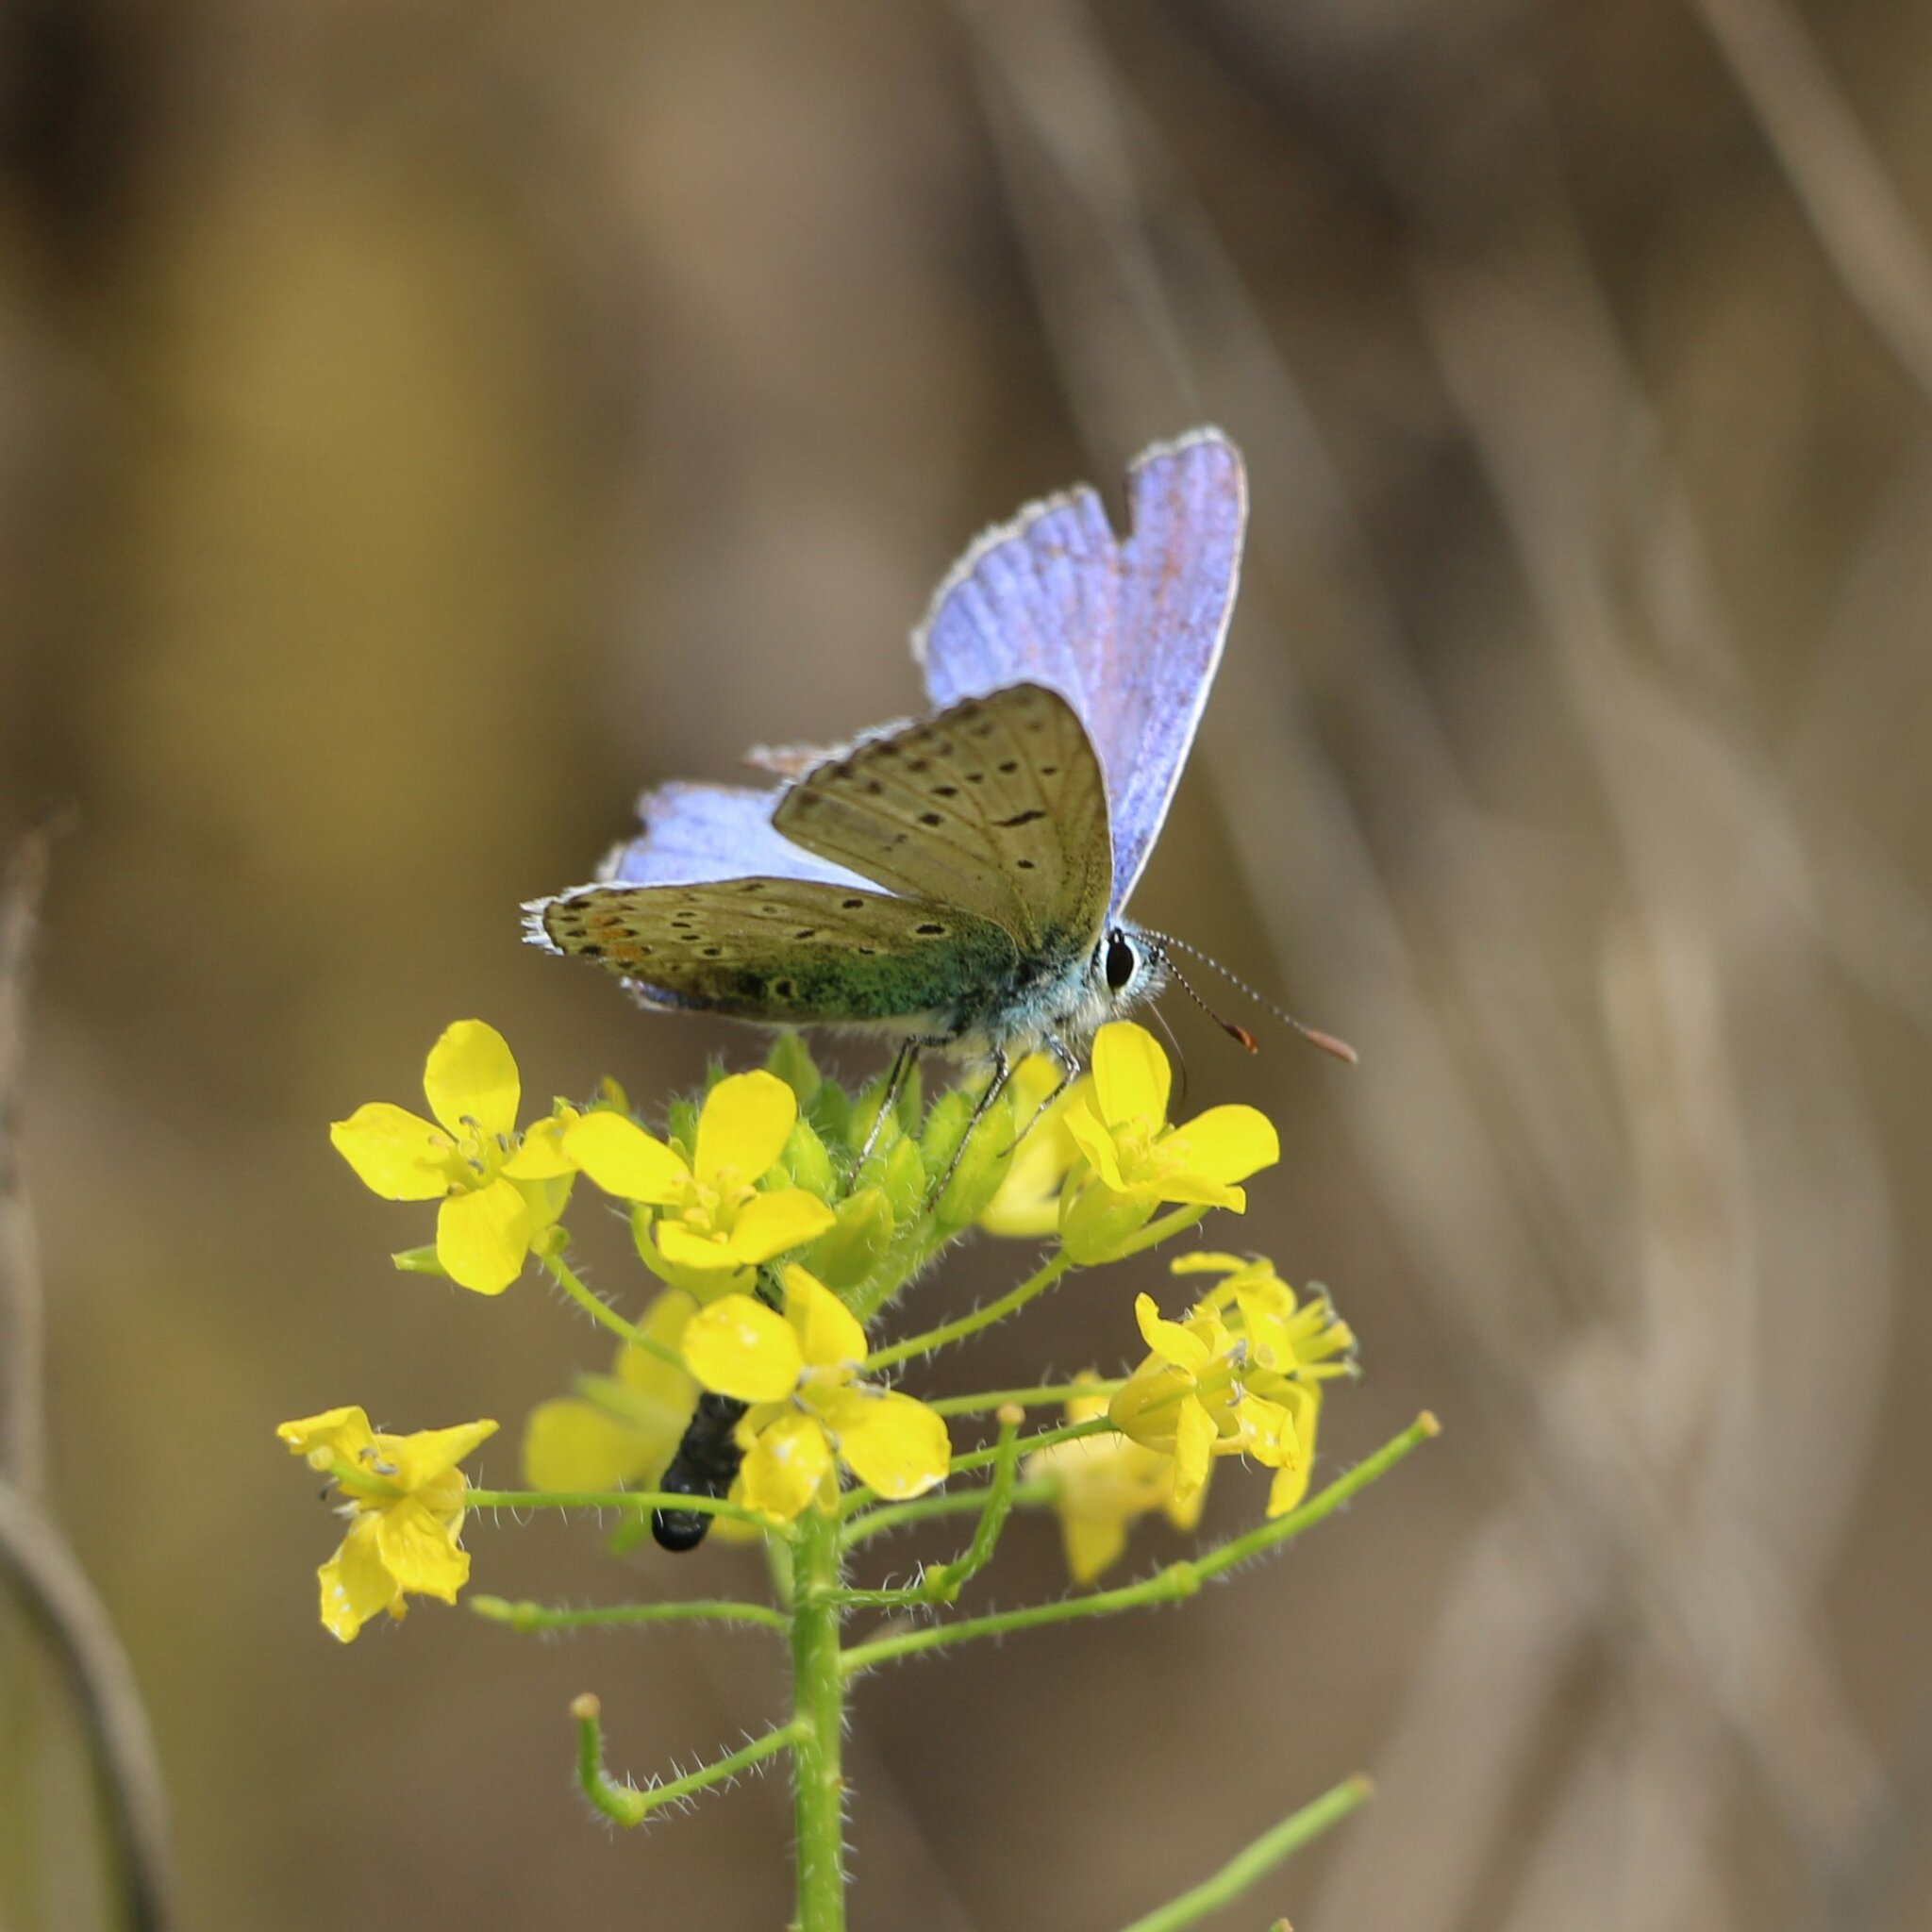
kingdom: Animalia
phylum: Arthropoda
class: Insecta
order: Lepidoptera
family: Lycaenidae
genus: Polyommatus
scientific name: Polyommatus icarus
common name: Common blue
